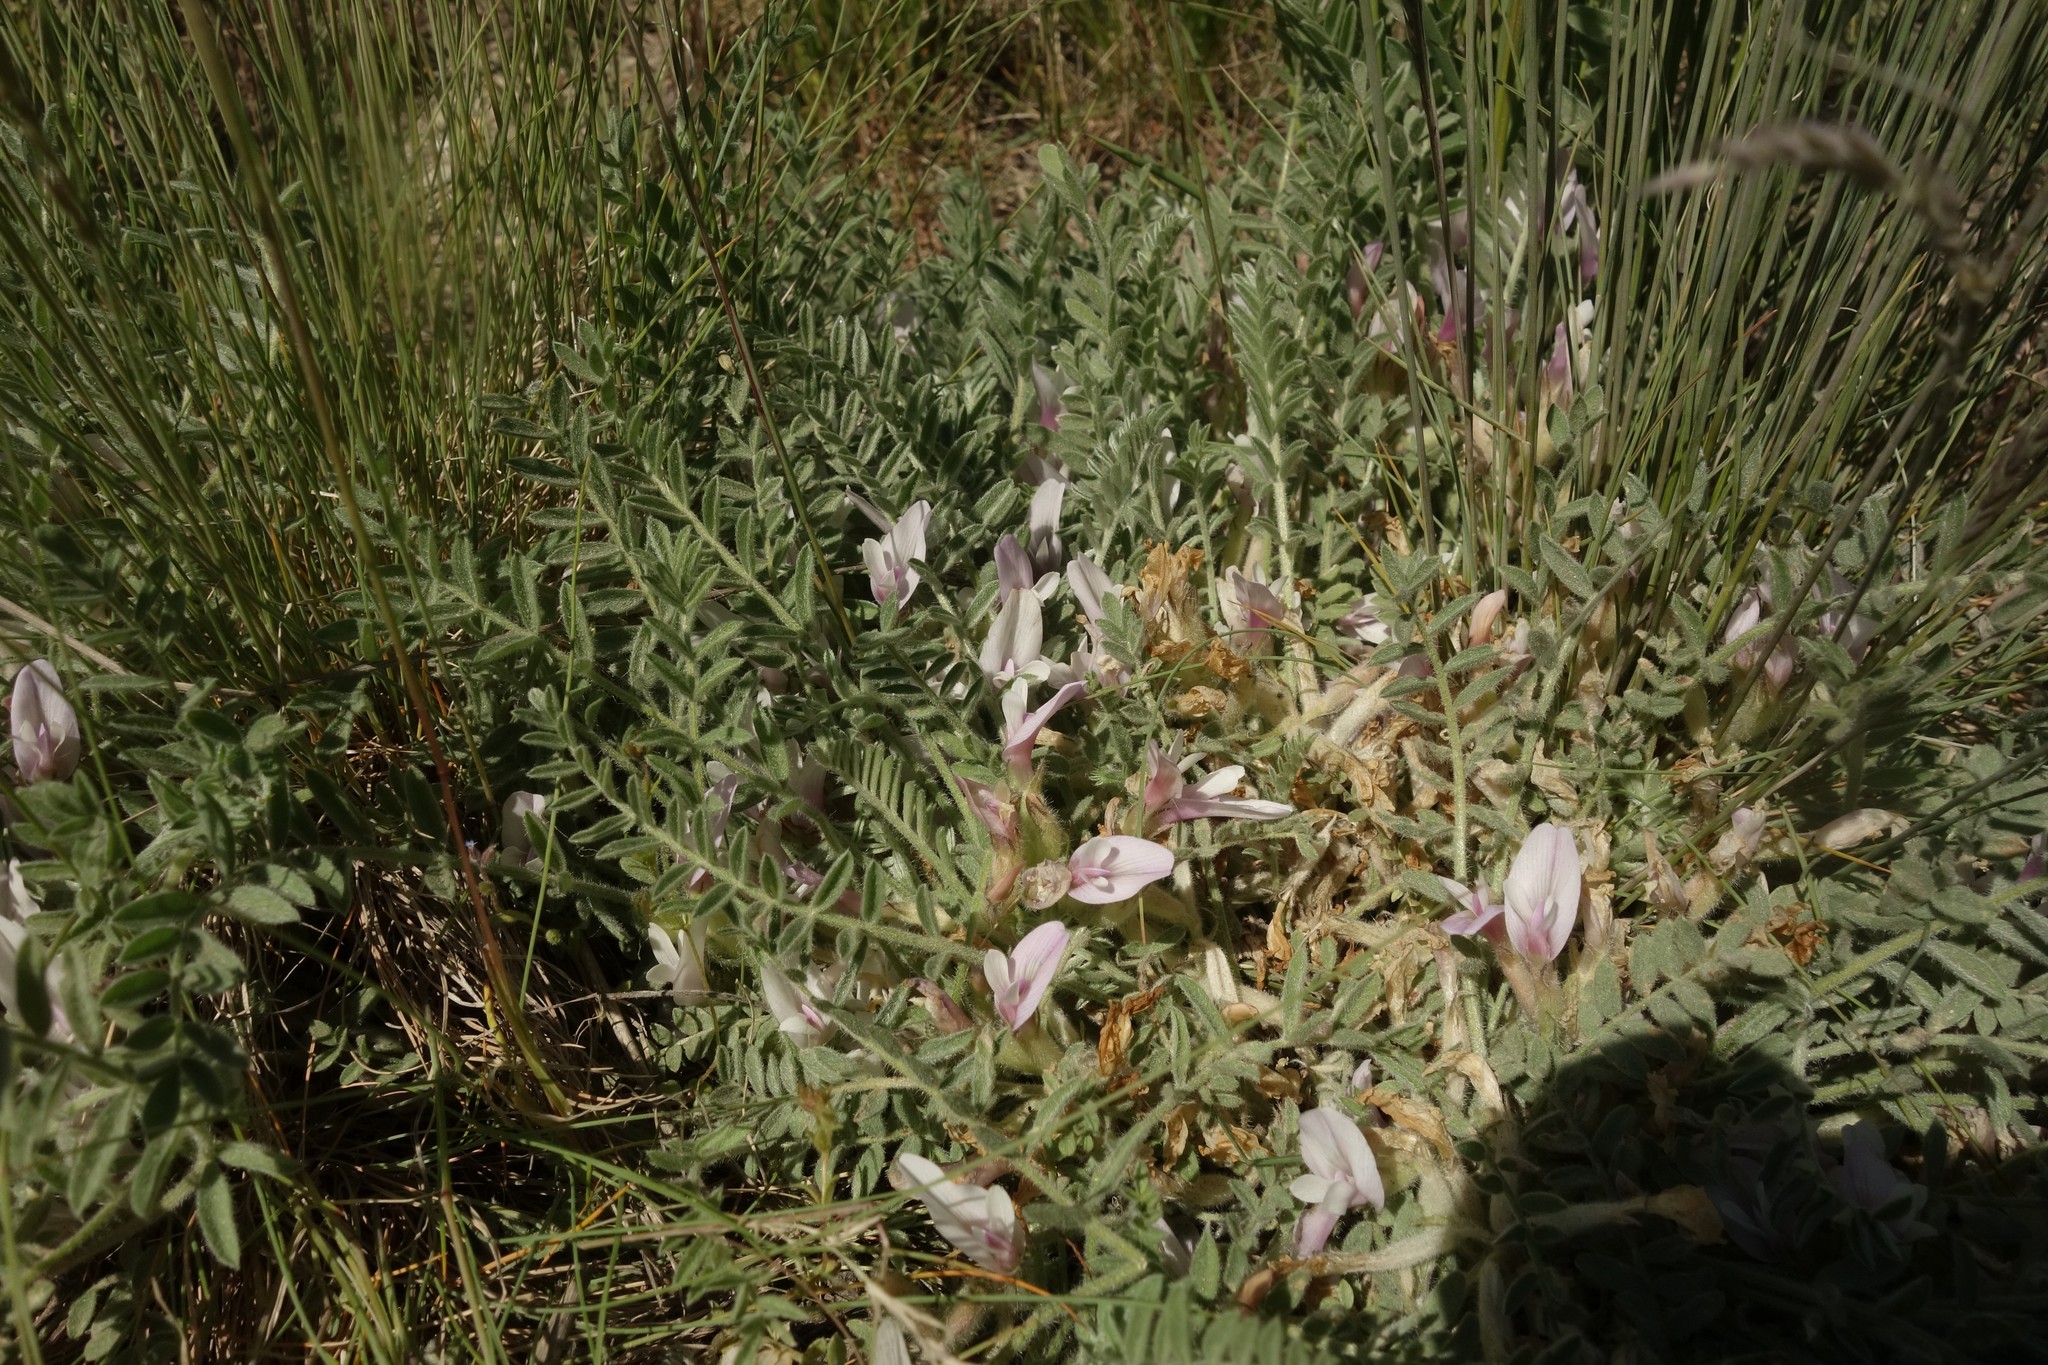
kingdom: Plantae
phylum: Tracheophyta
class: Magnoliopsida
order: Fabales
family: Fabaceae
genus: Astragalus
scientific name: Astragalus testiculatus
